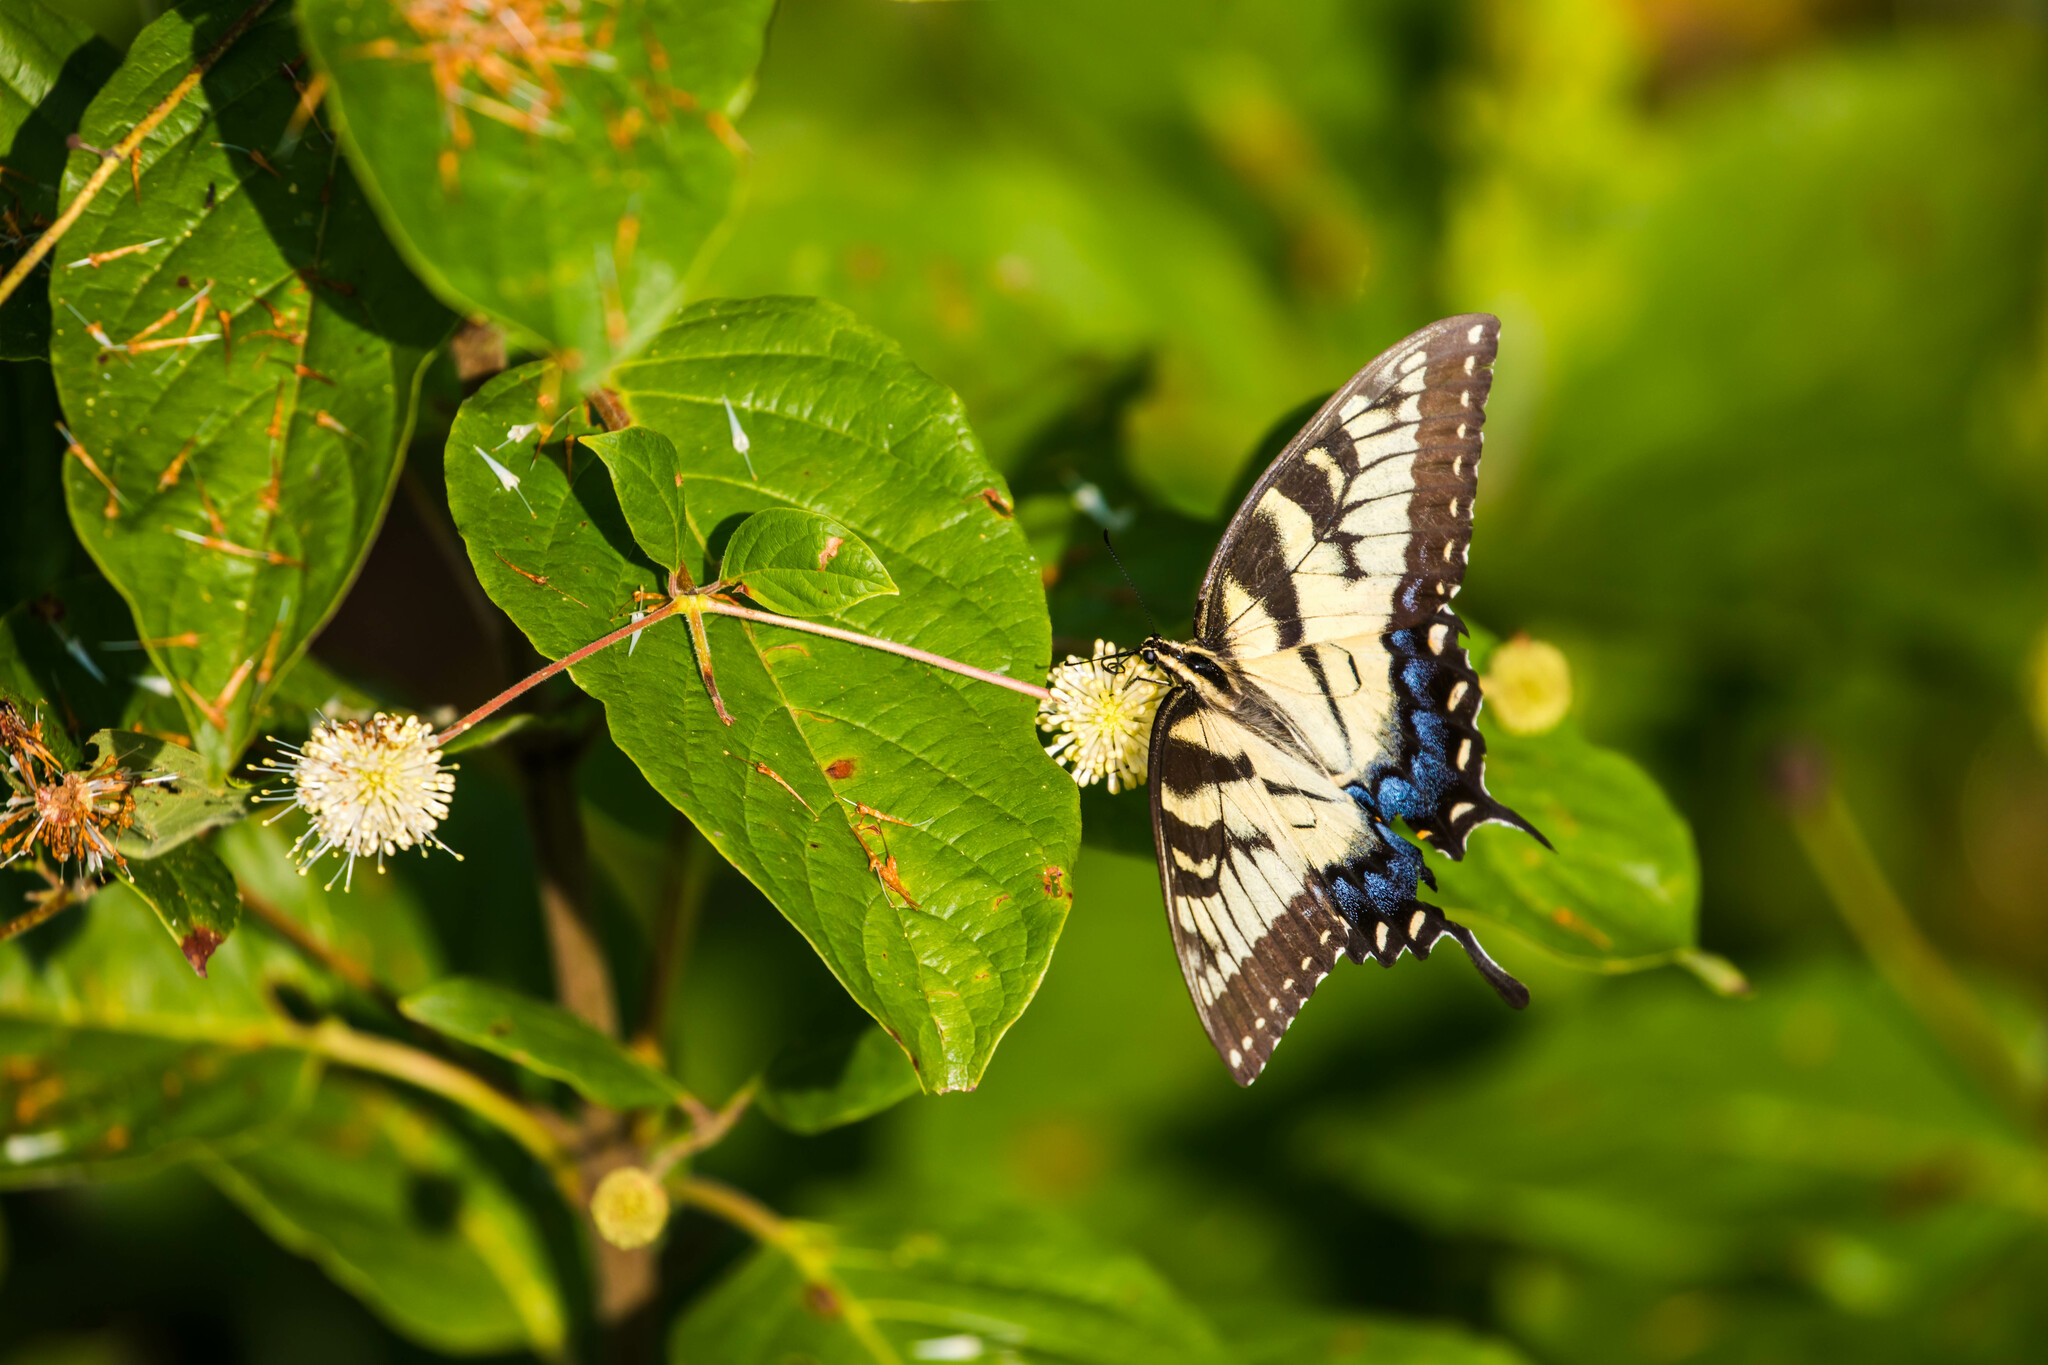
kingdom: Animalia
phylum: Arthropoda
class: Insecta
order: Lepidoptera
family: Papilionidae
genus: Papilio
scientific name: Papilio glaucus
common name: Tiger swallowtail
